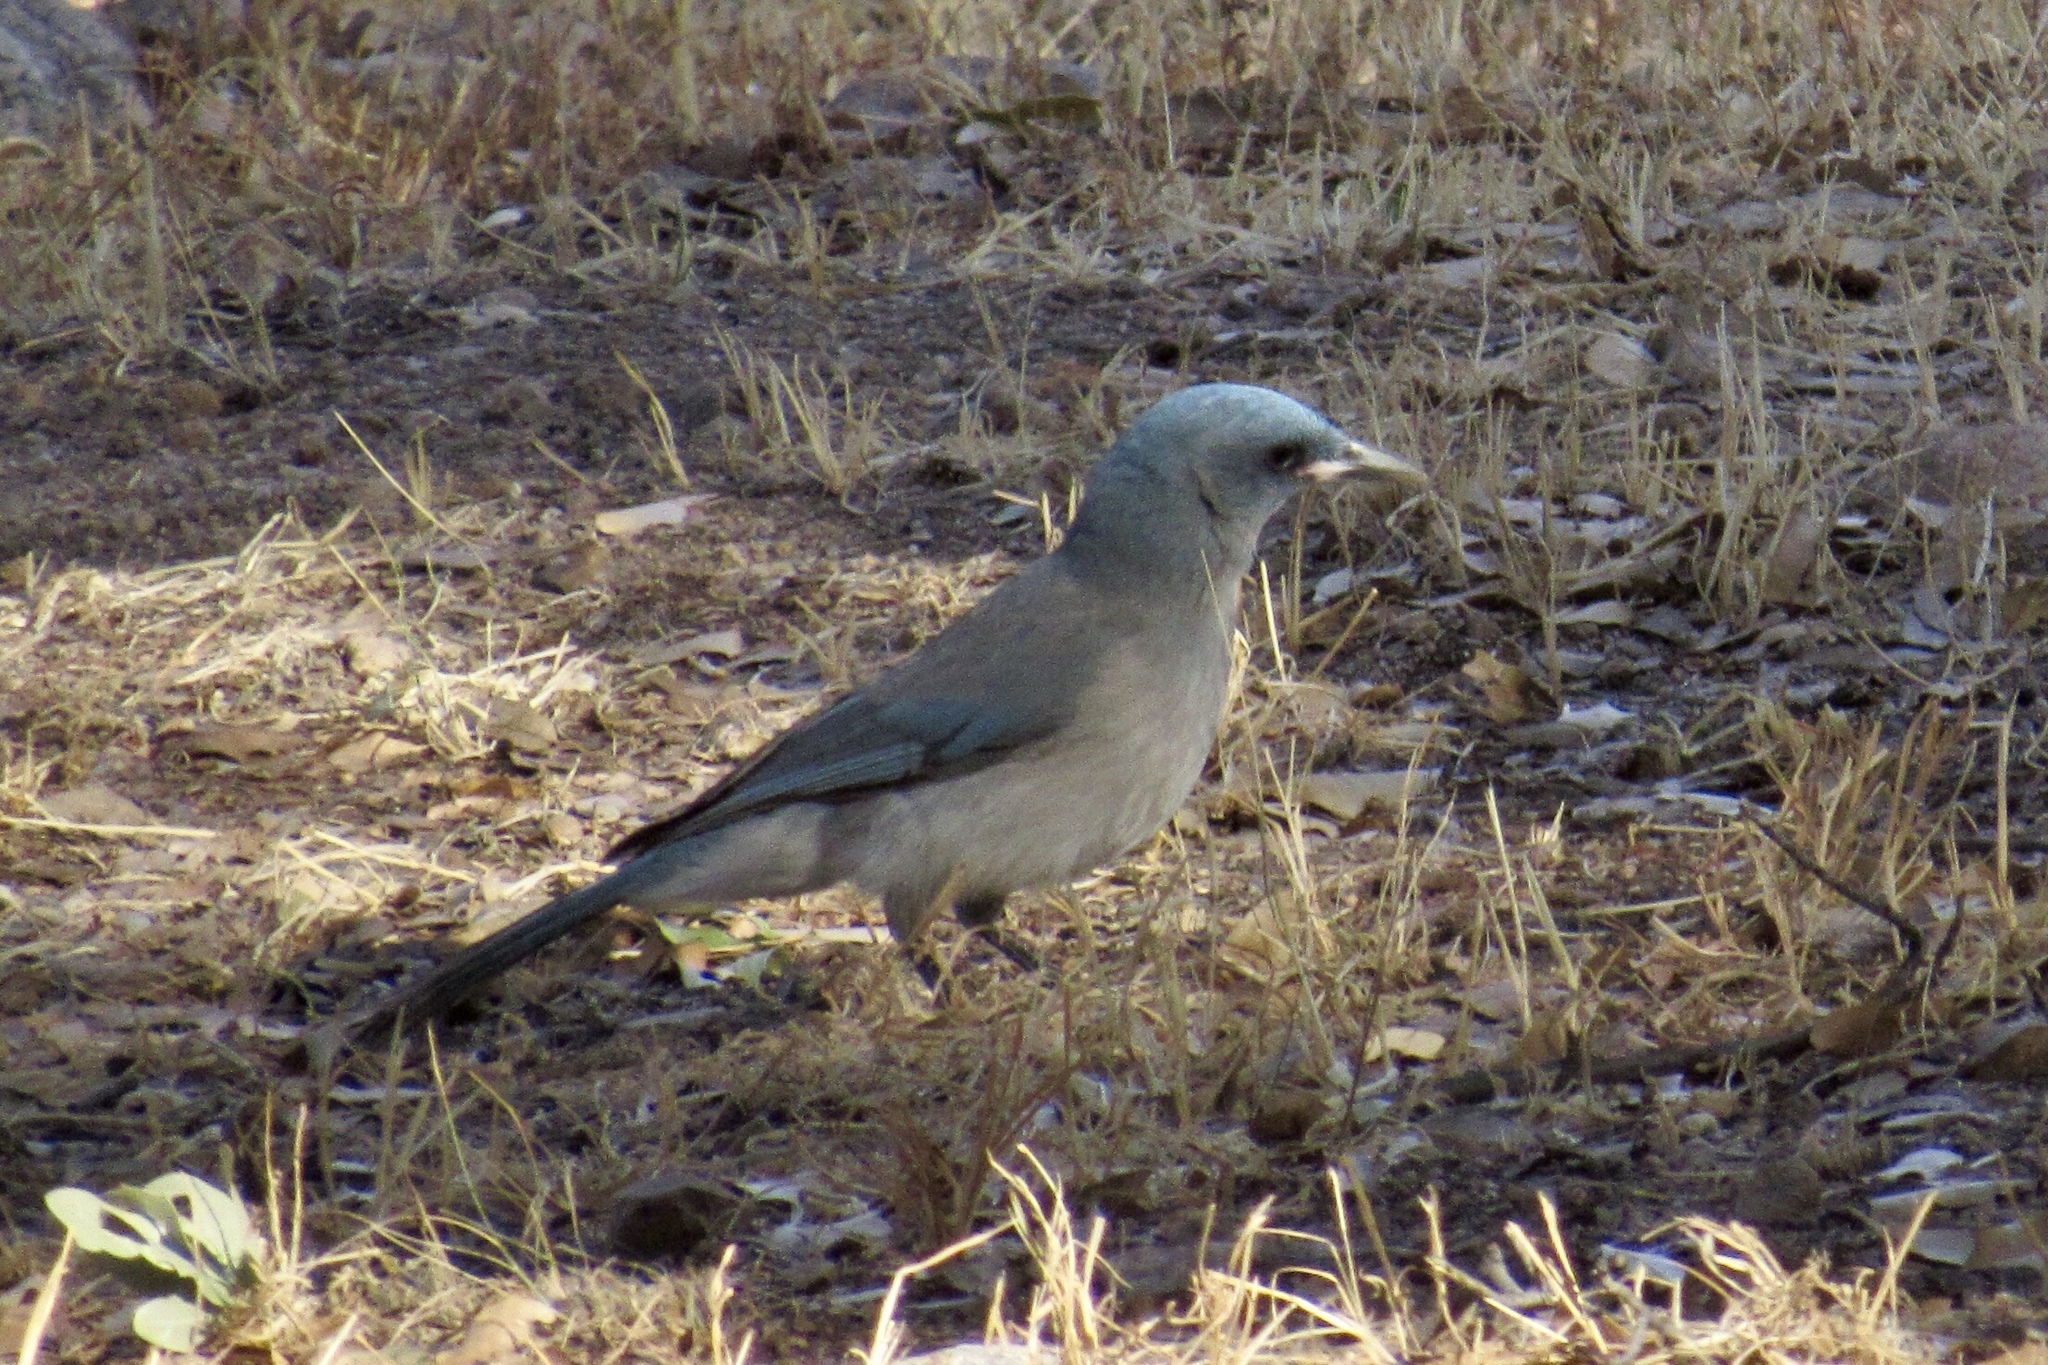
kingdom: Animalia
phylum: Chordata
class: Aves
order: Passeriformes
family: Corvidae
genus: Aphelocoma
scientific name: Aphelocoma wollweberi
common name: Mexican jay
